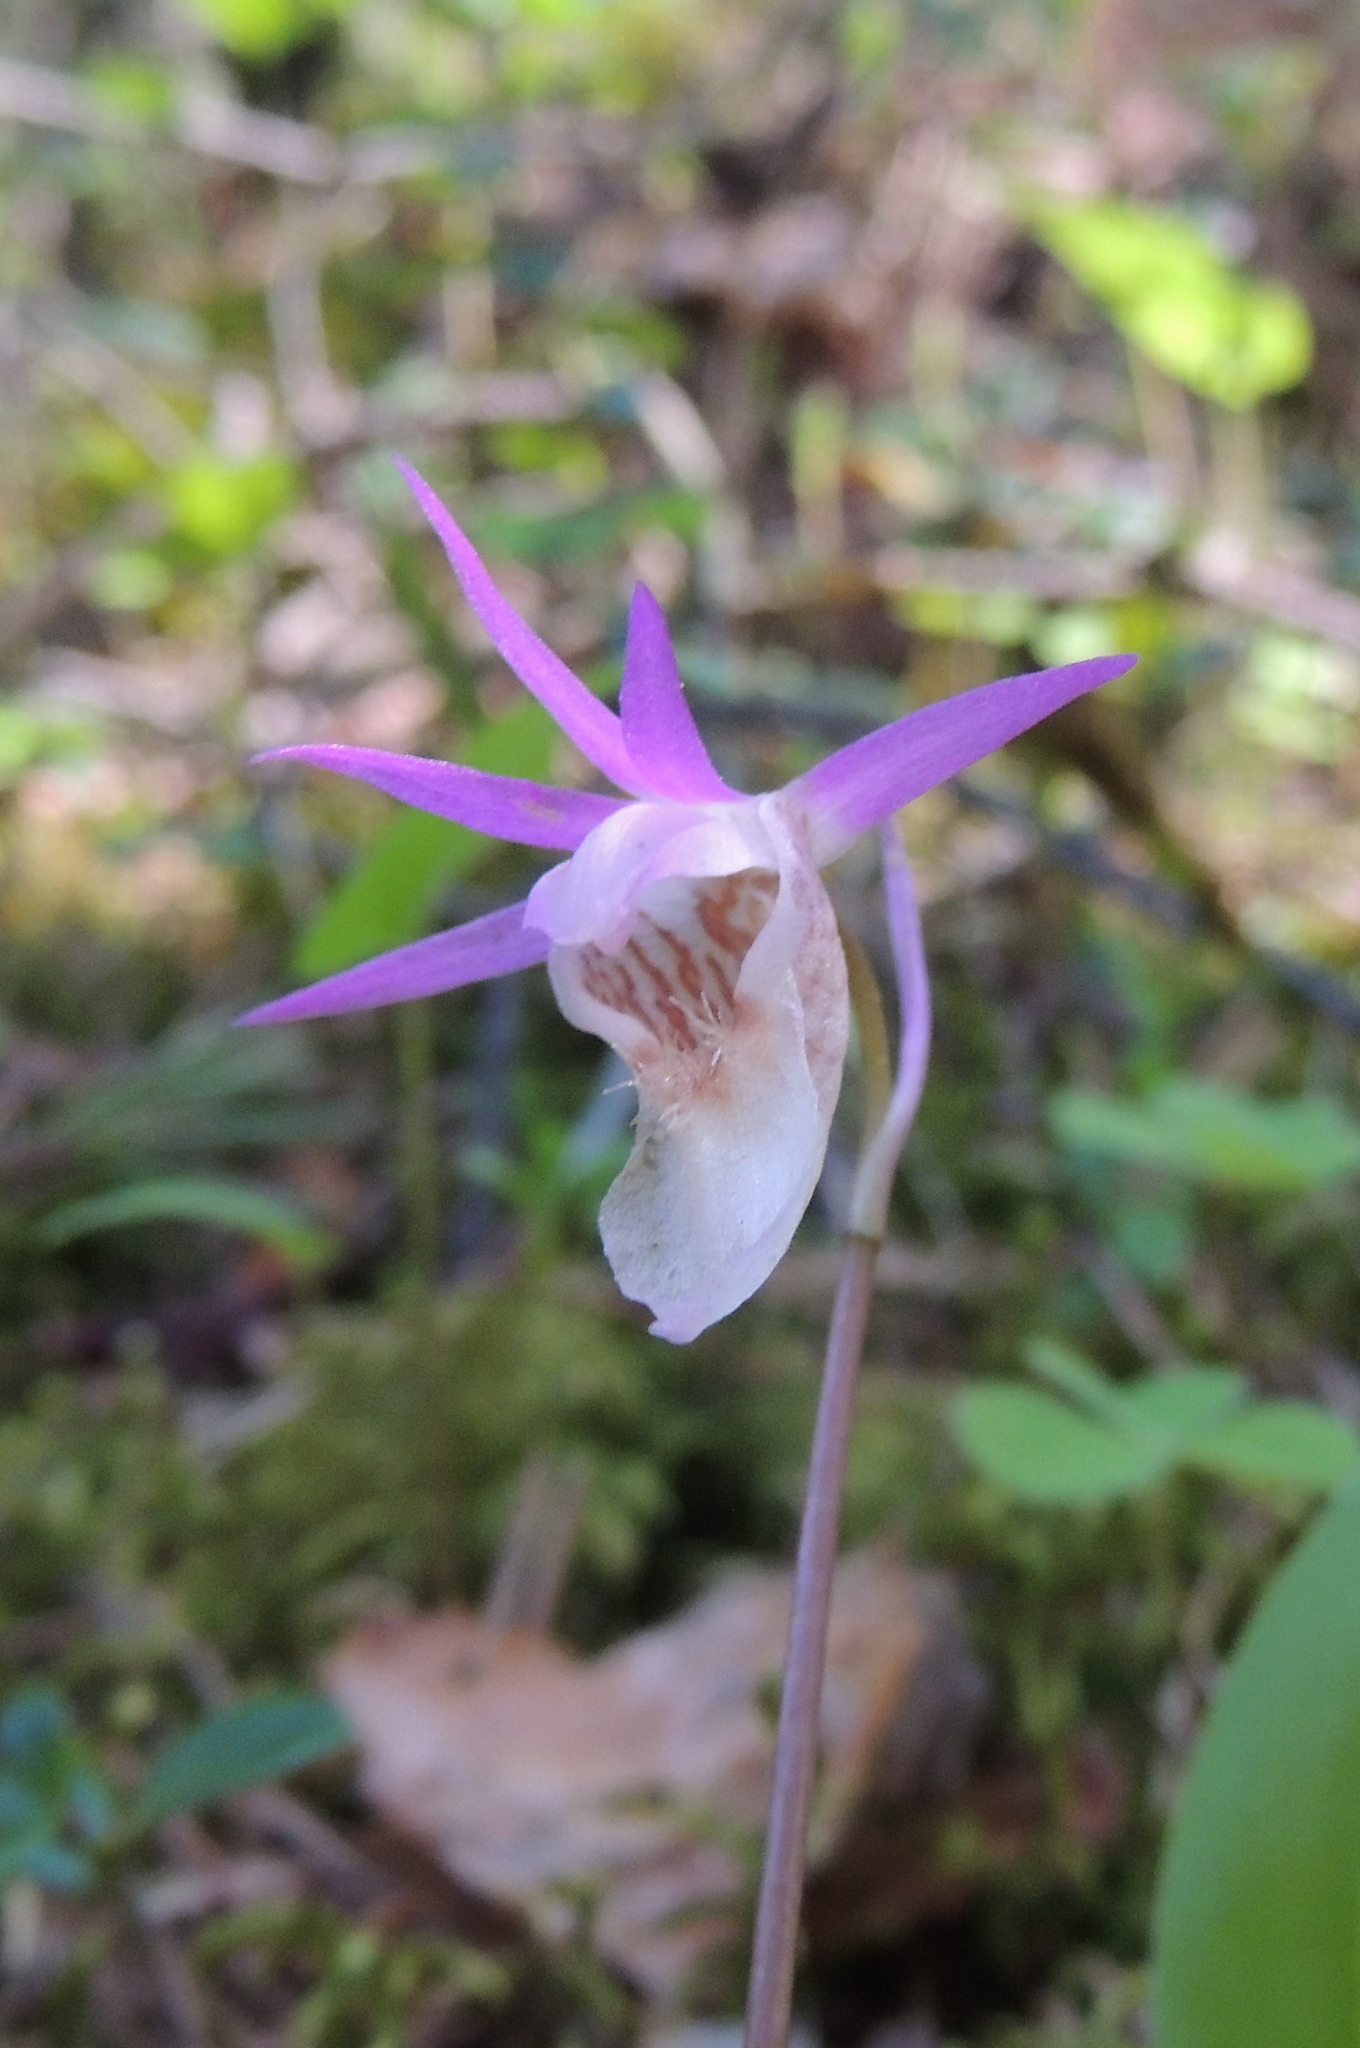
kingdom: Plantae
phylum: Tracheophyta
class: Liliopsida
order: Asparagales
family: Orchidaceae
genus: Calypso
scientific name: Calypso bulbosa
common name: Calypso
